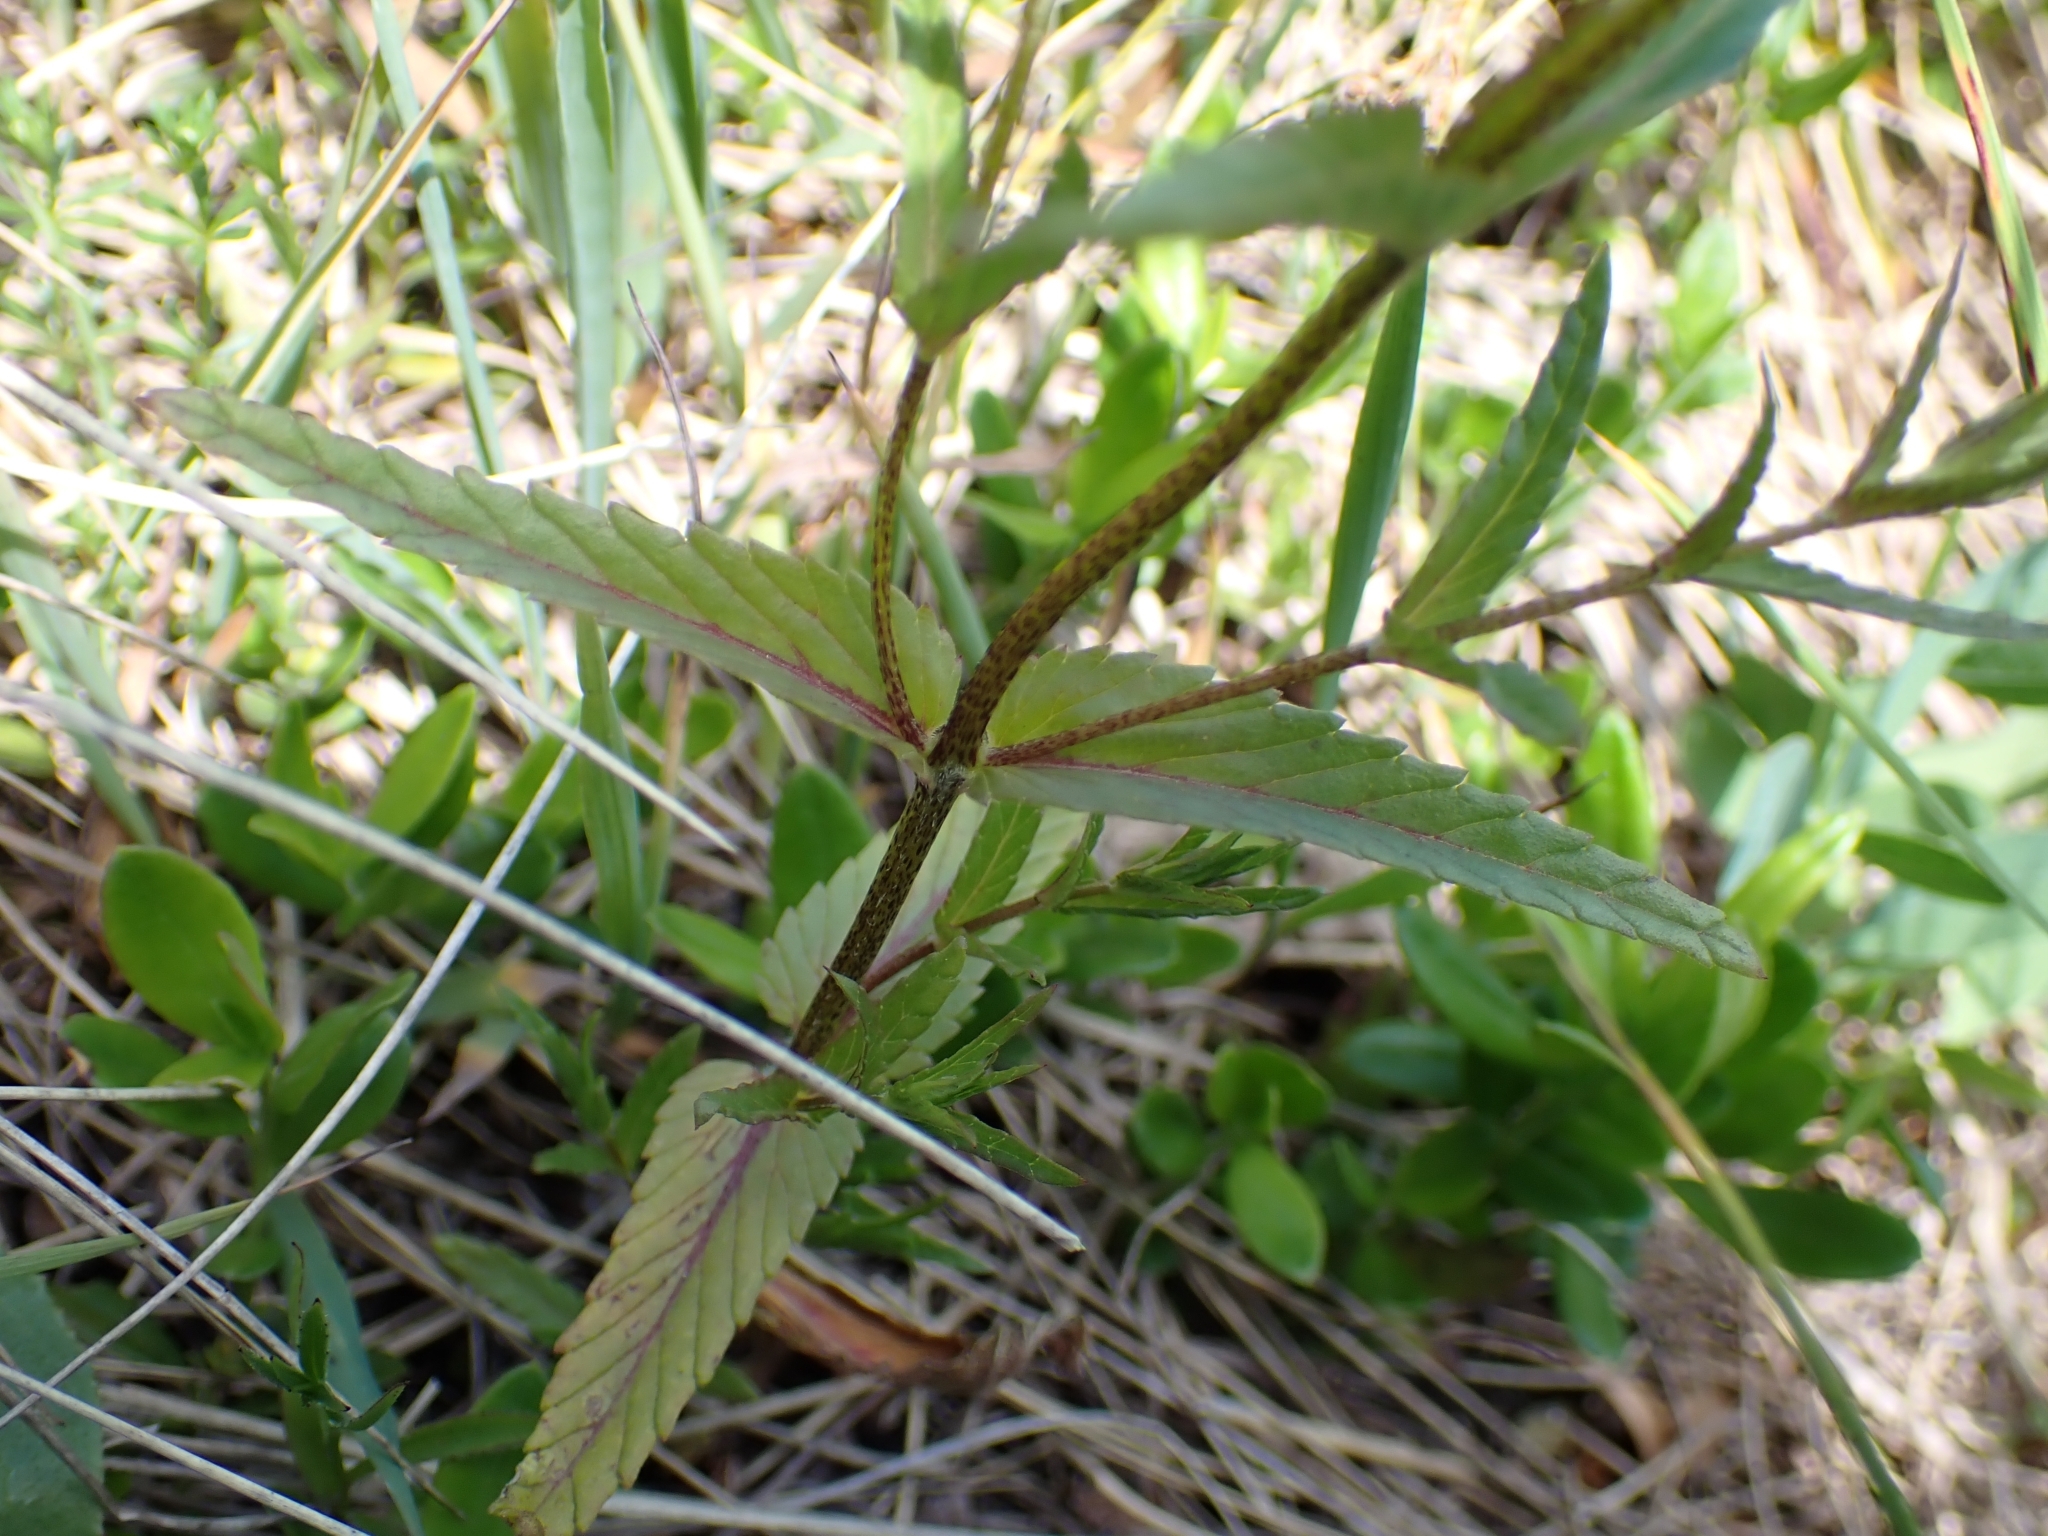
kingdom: Plantae
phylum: Tracheophyta
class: Magnoliopsida
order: Lamiales
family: Orobanchaceae
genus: Rhinanthus
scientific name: Rhinanthus glacialis
